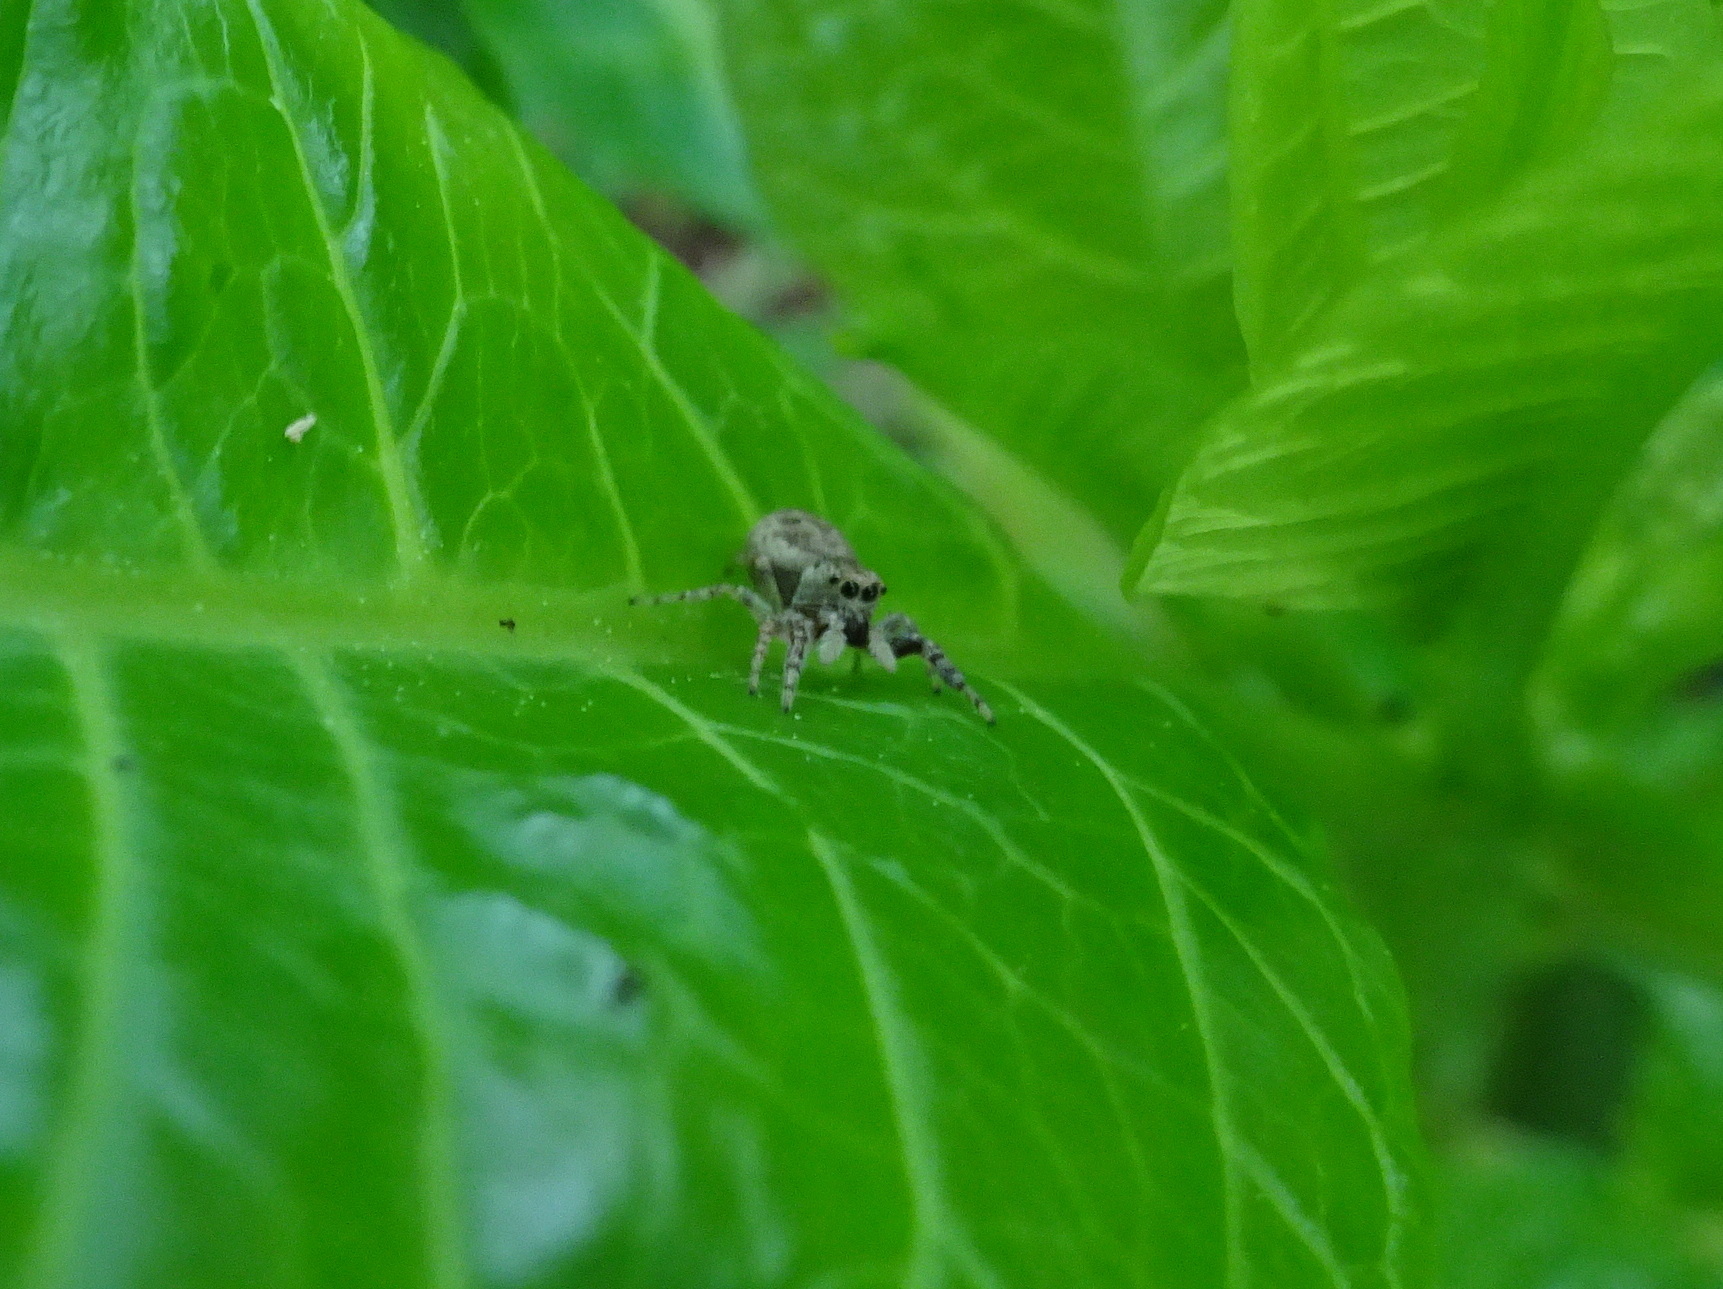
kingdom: Animalia
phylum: Arthropoda
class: Arachnida
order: Araneae
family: Salticidae
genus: Pelegrina
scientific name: Pelegrina proterva
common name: Common white-cheeked jumping spider
